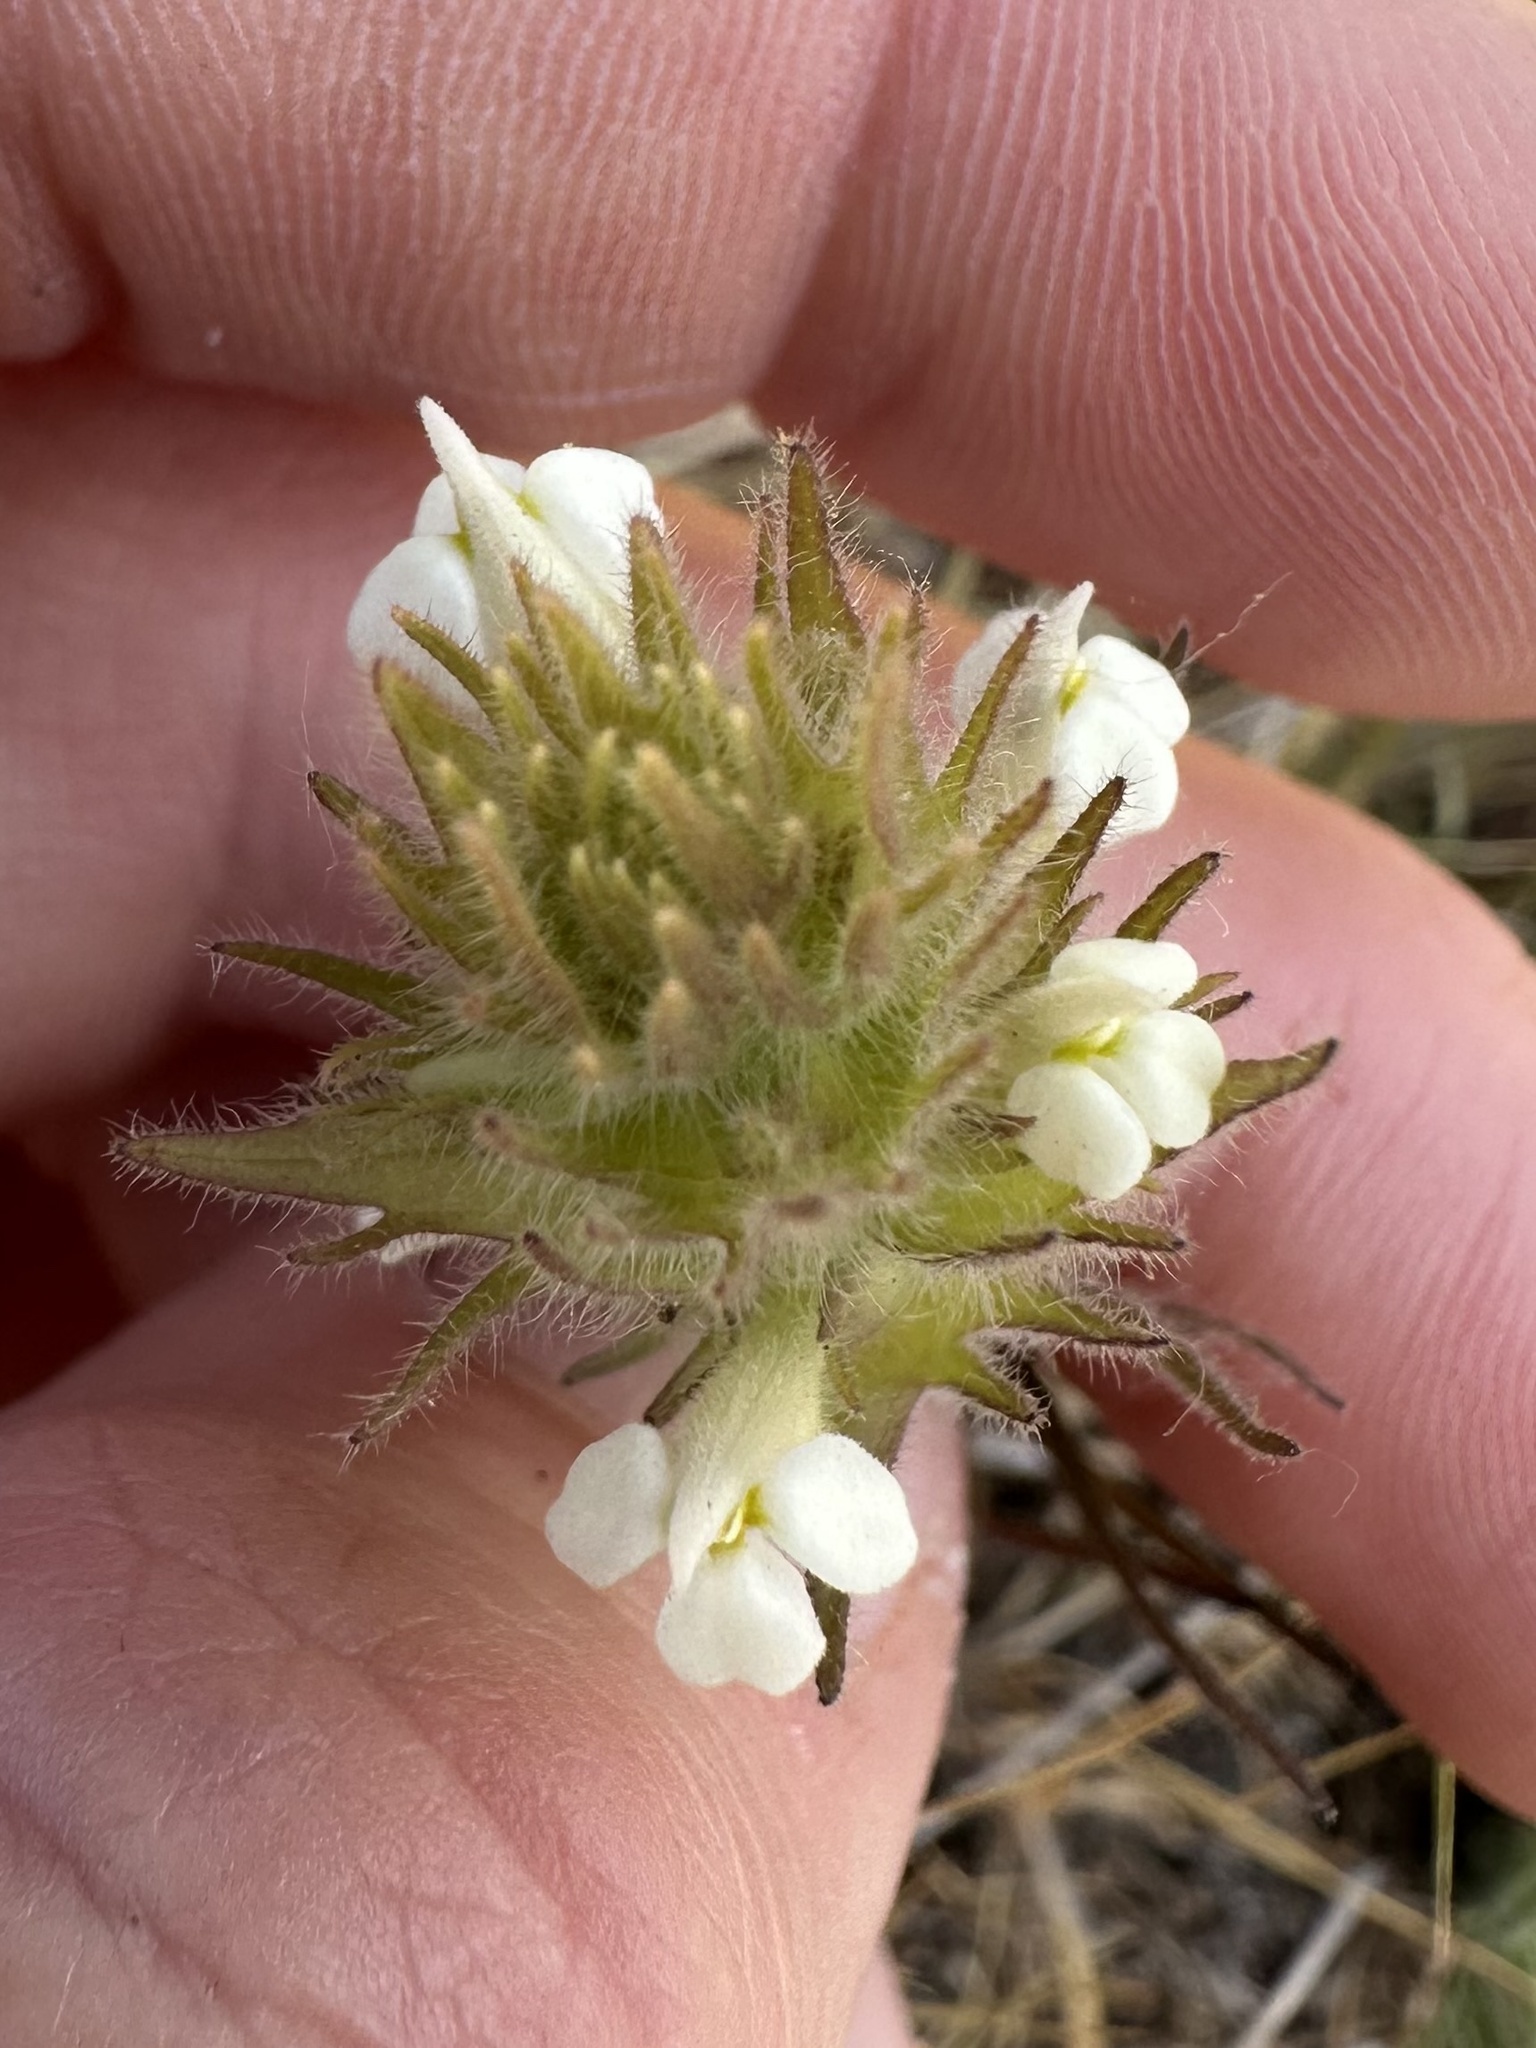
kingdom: Plantae
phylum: Tracheophyta
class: Magnoliopsida
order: Lamiales
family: Orobanchaceae
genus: Castilleja
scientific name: Castilleja tenuis
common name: Hairy indian paintbrush
